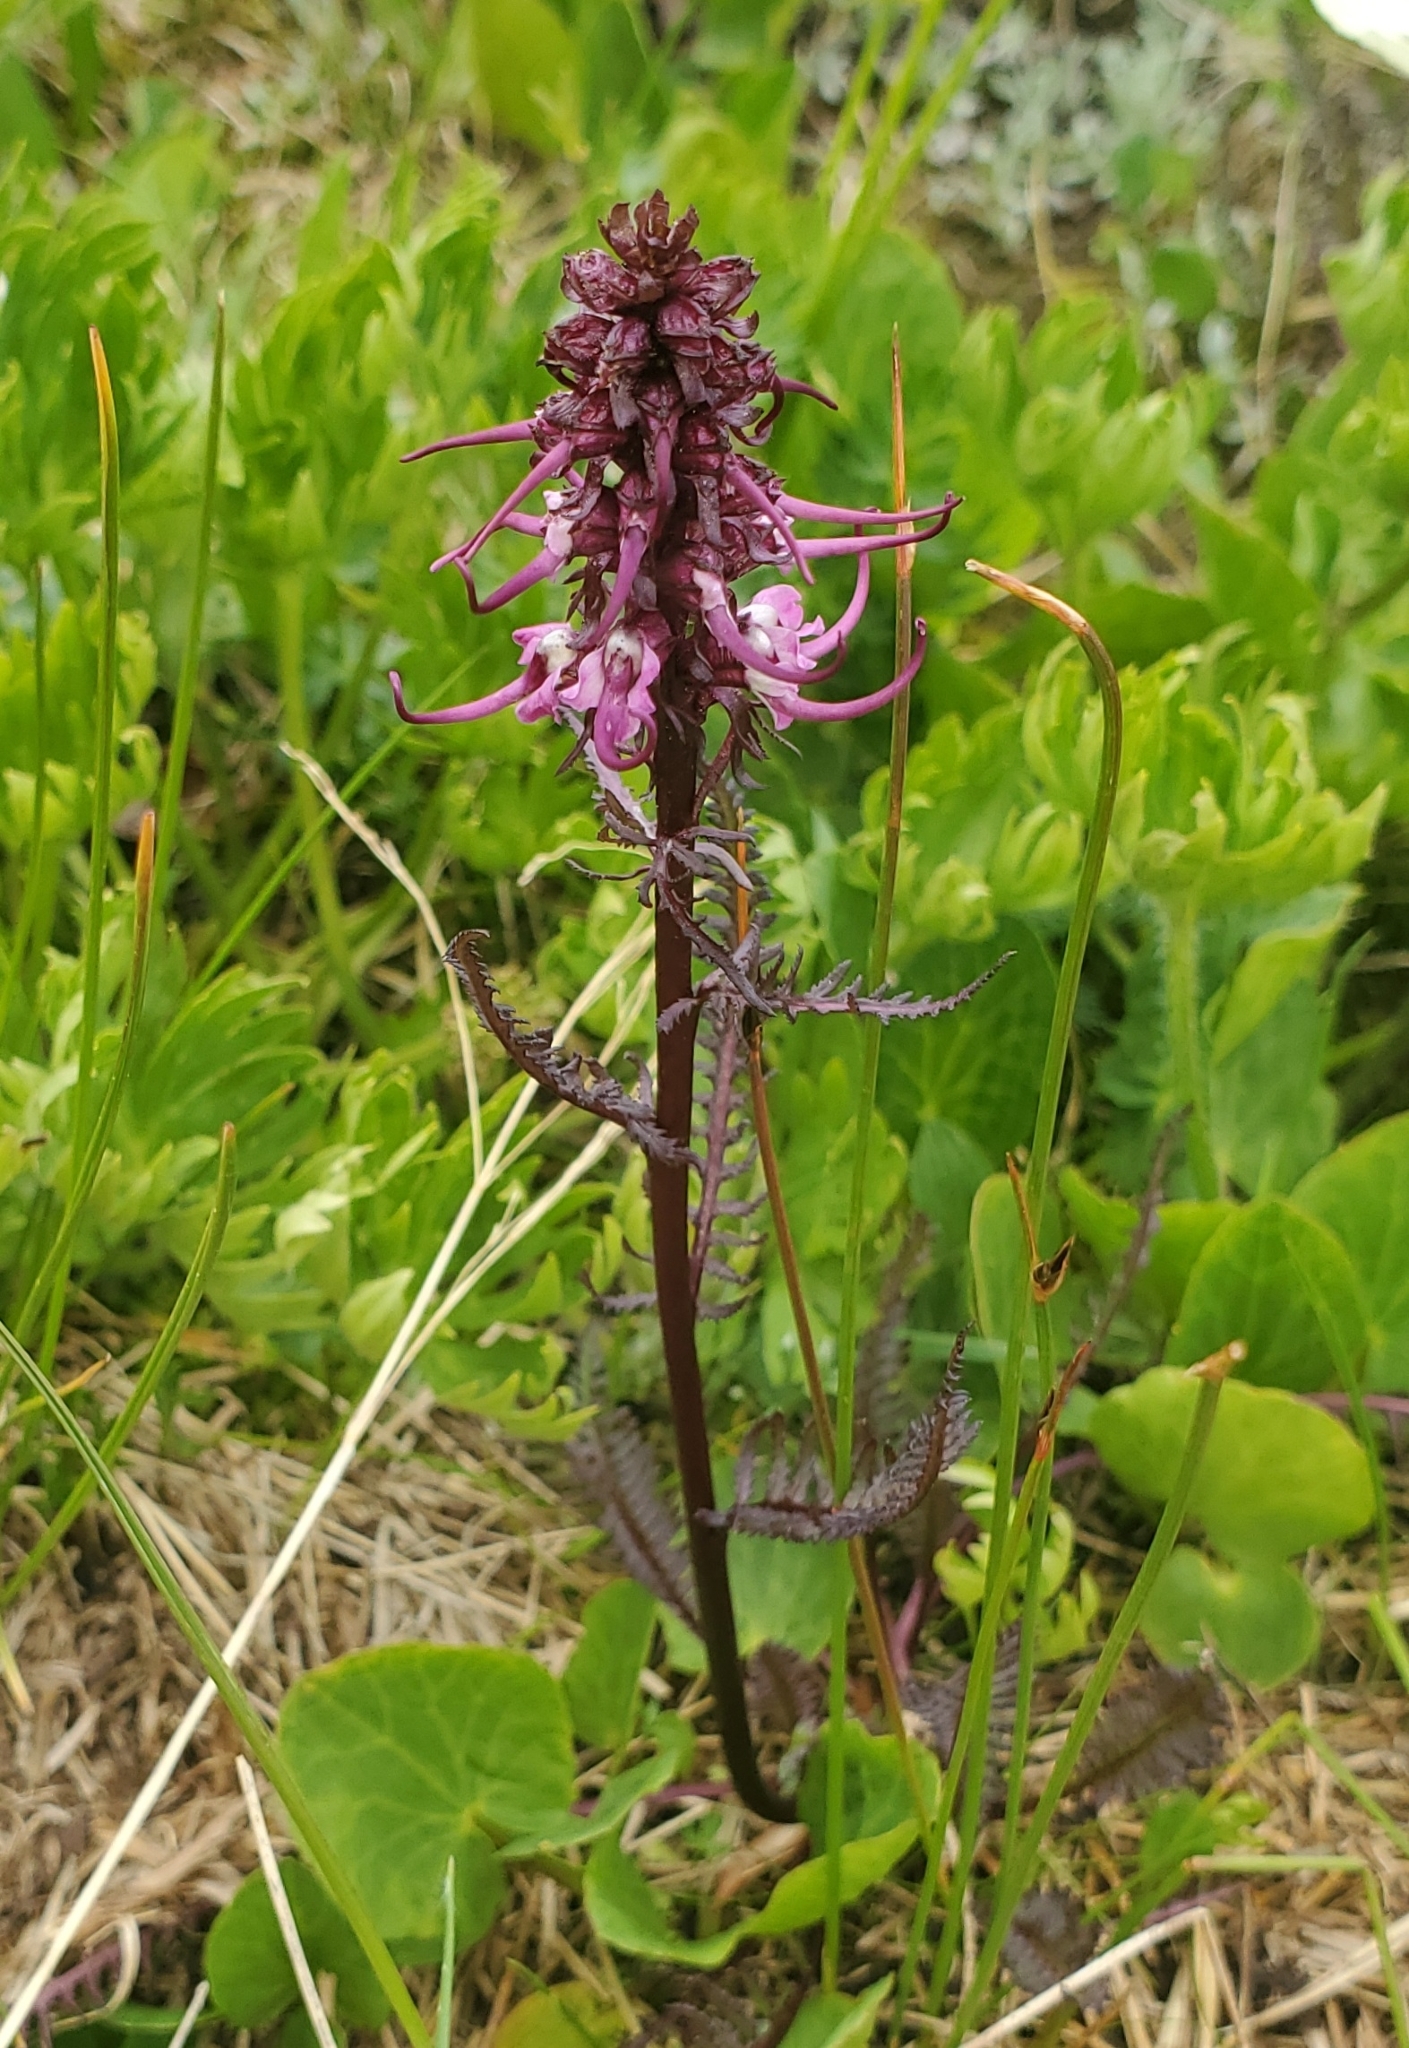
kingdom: Plantae
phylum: Tracheophyta
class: Magnoliopsida
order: Lamiales
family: Orobanchaceae
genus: Pedicularis
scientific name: Pedicularis groenlandica
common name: Elephant's-head
